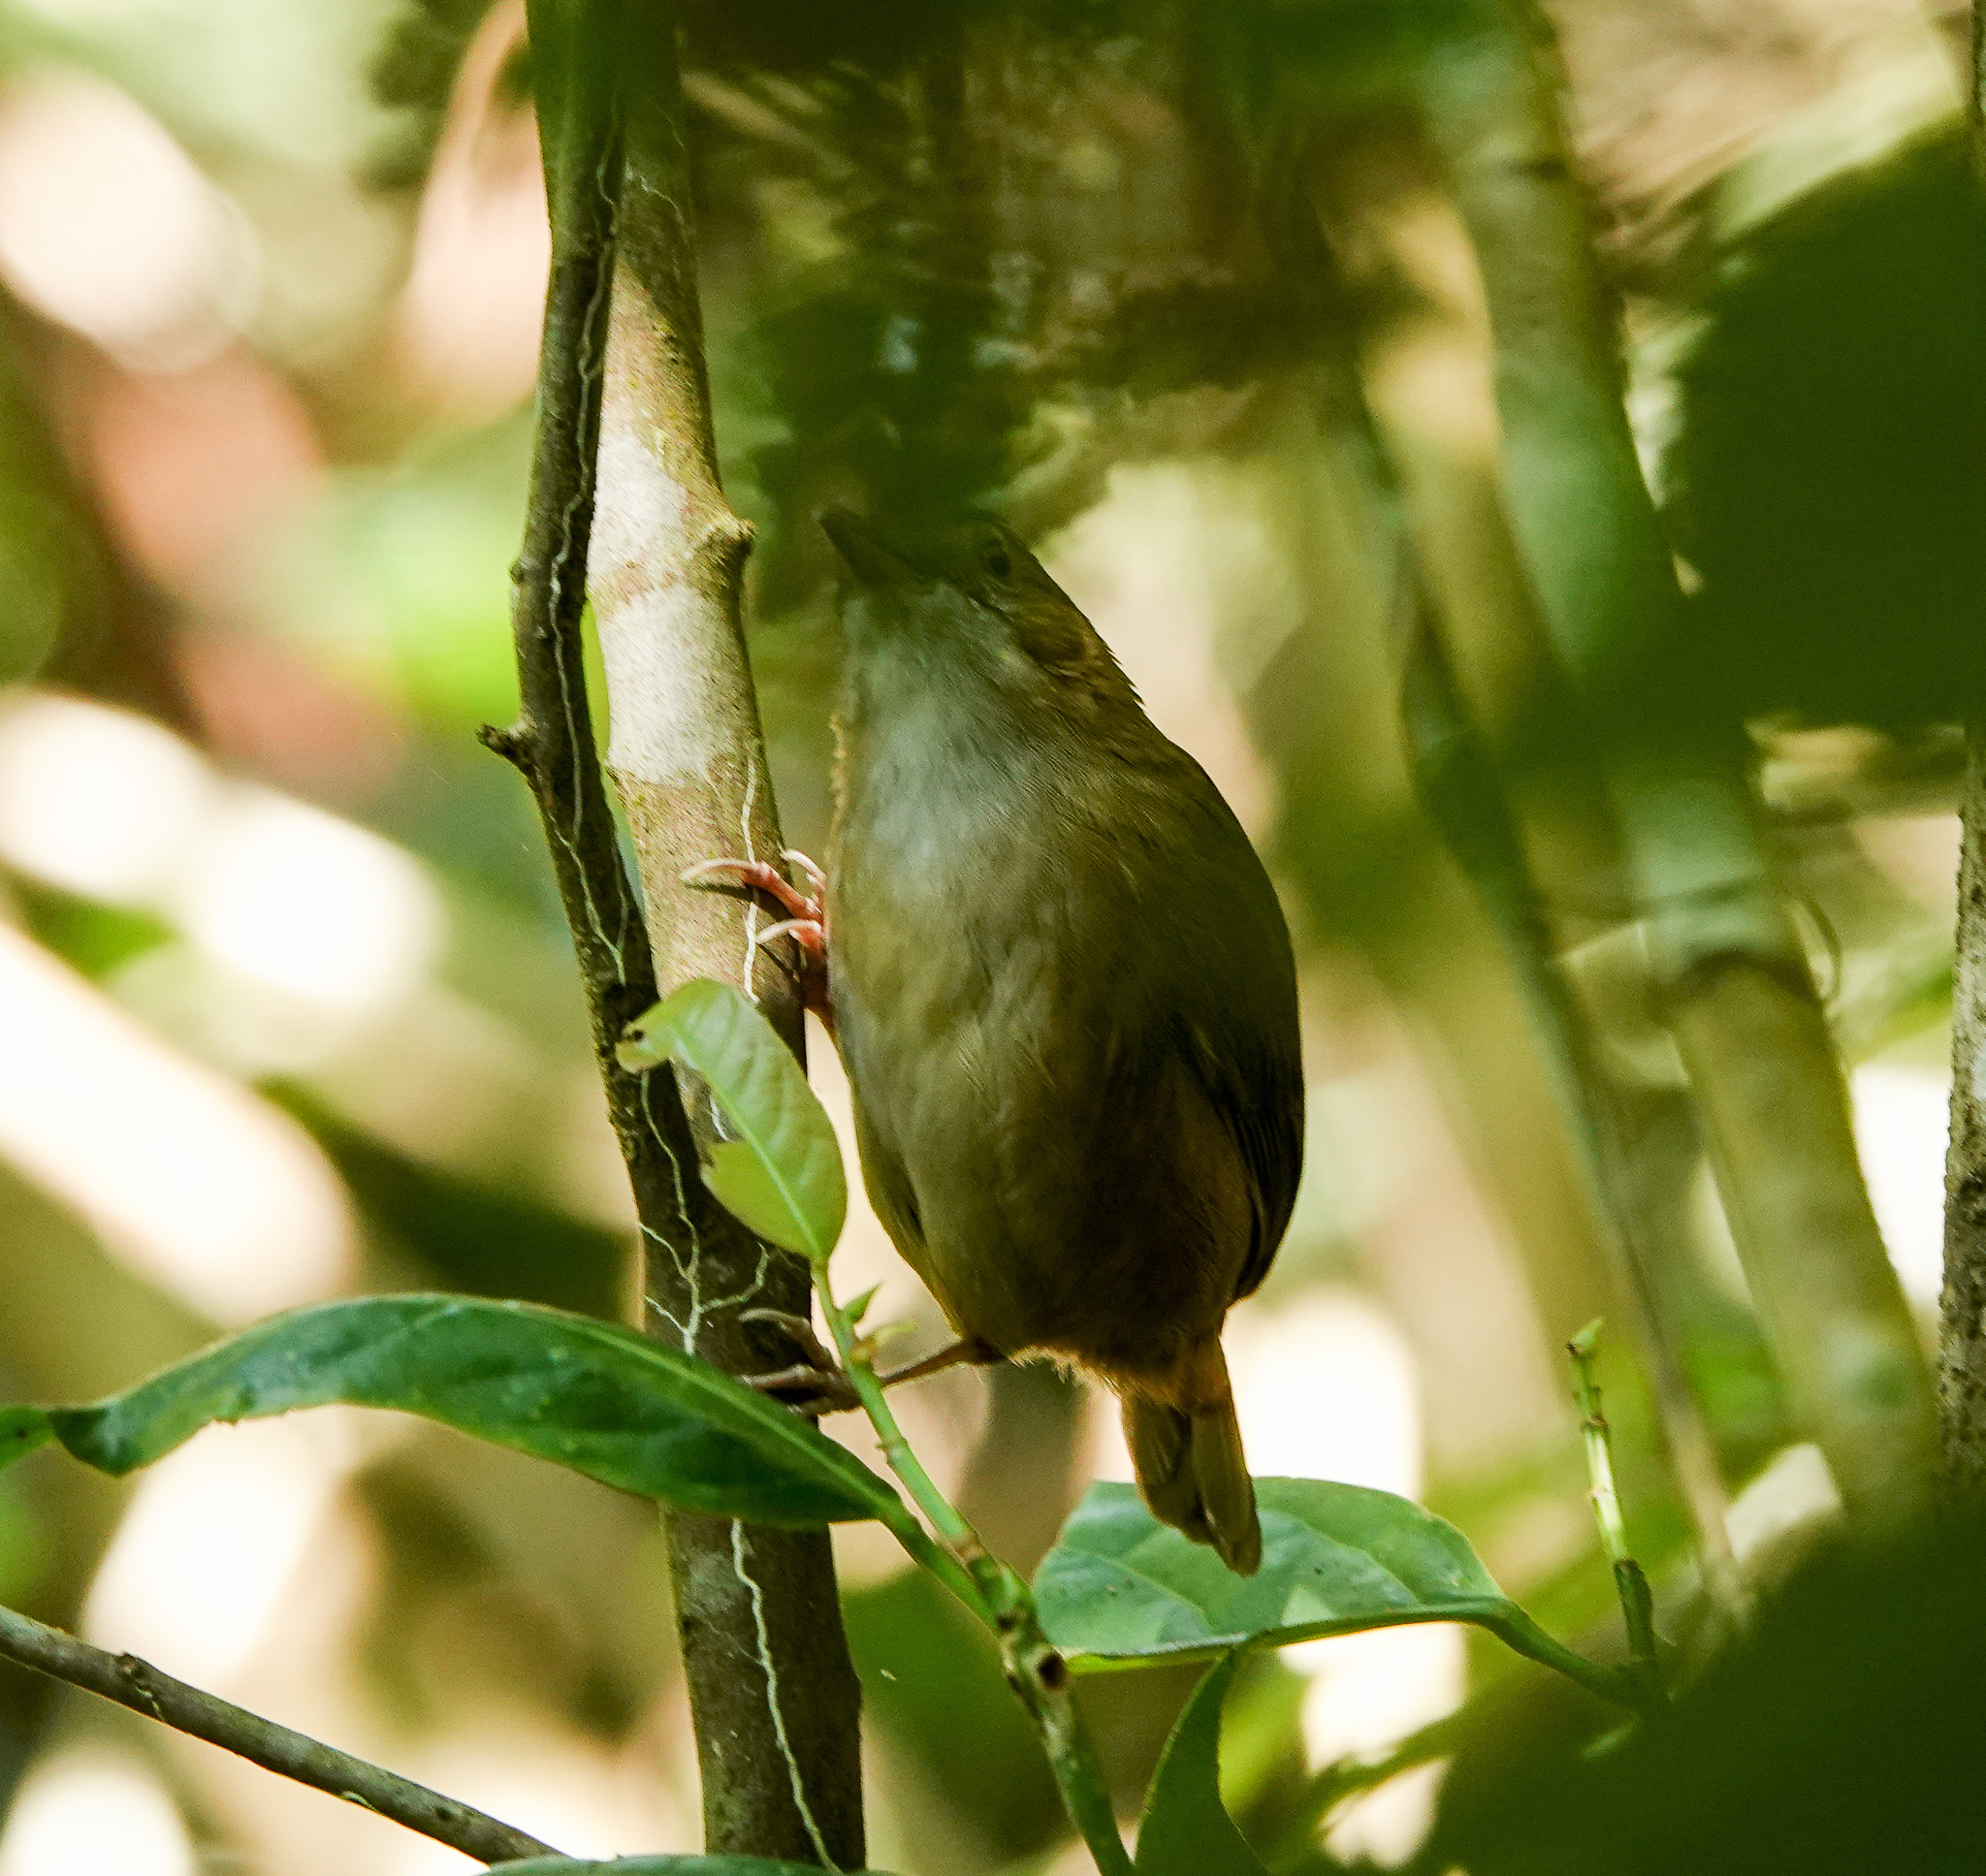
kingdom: Animalia
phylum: Chordata
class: Aves
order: Passeriformes
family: Pellorneidae
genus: Malacocincla
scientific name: Malacocincla abbotti
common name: Abbott's babbler
